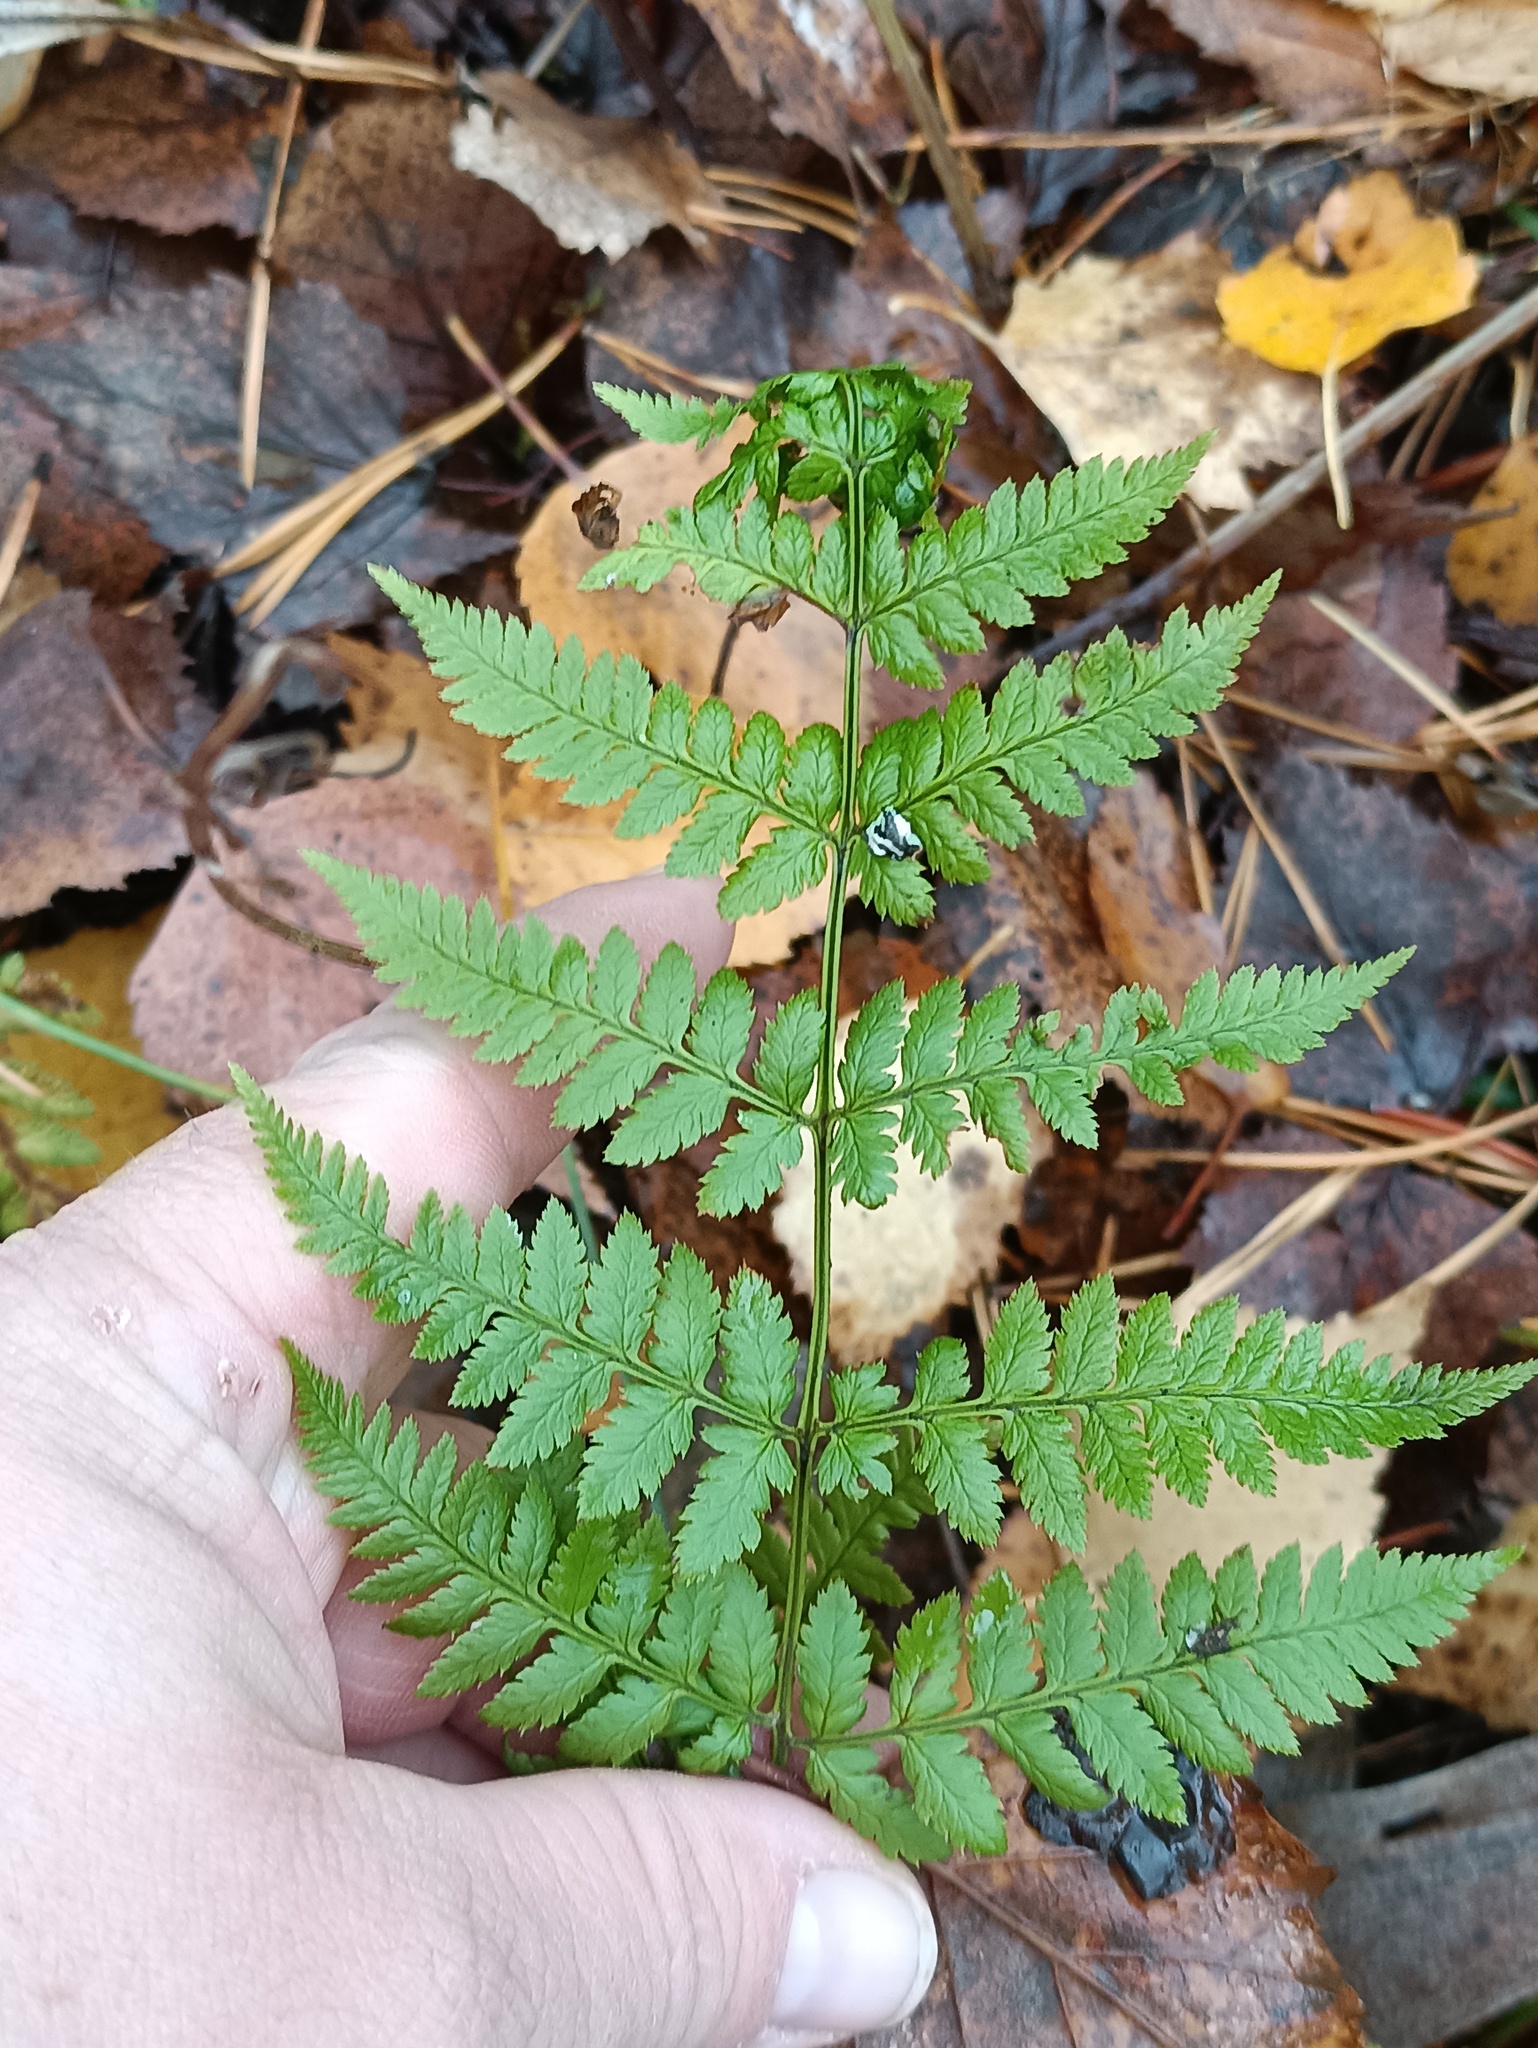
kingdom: Plantae
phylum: Tracheophyta
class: Polypodiopsida
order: Polypodiales
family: Dryopteridaceae
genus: Dryopteris
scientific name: Dryopteris carthusiana
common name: Narrow buckler-fern
